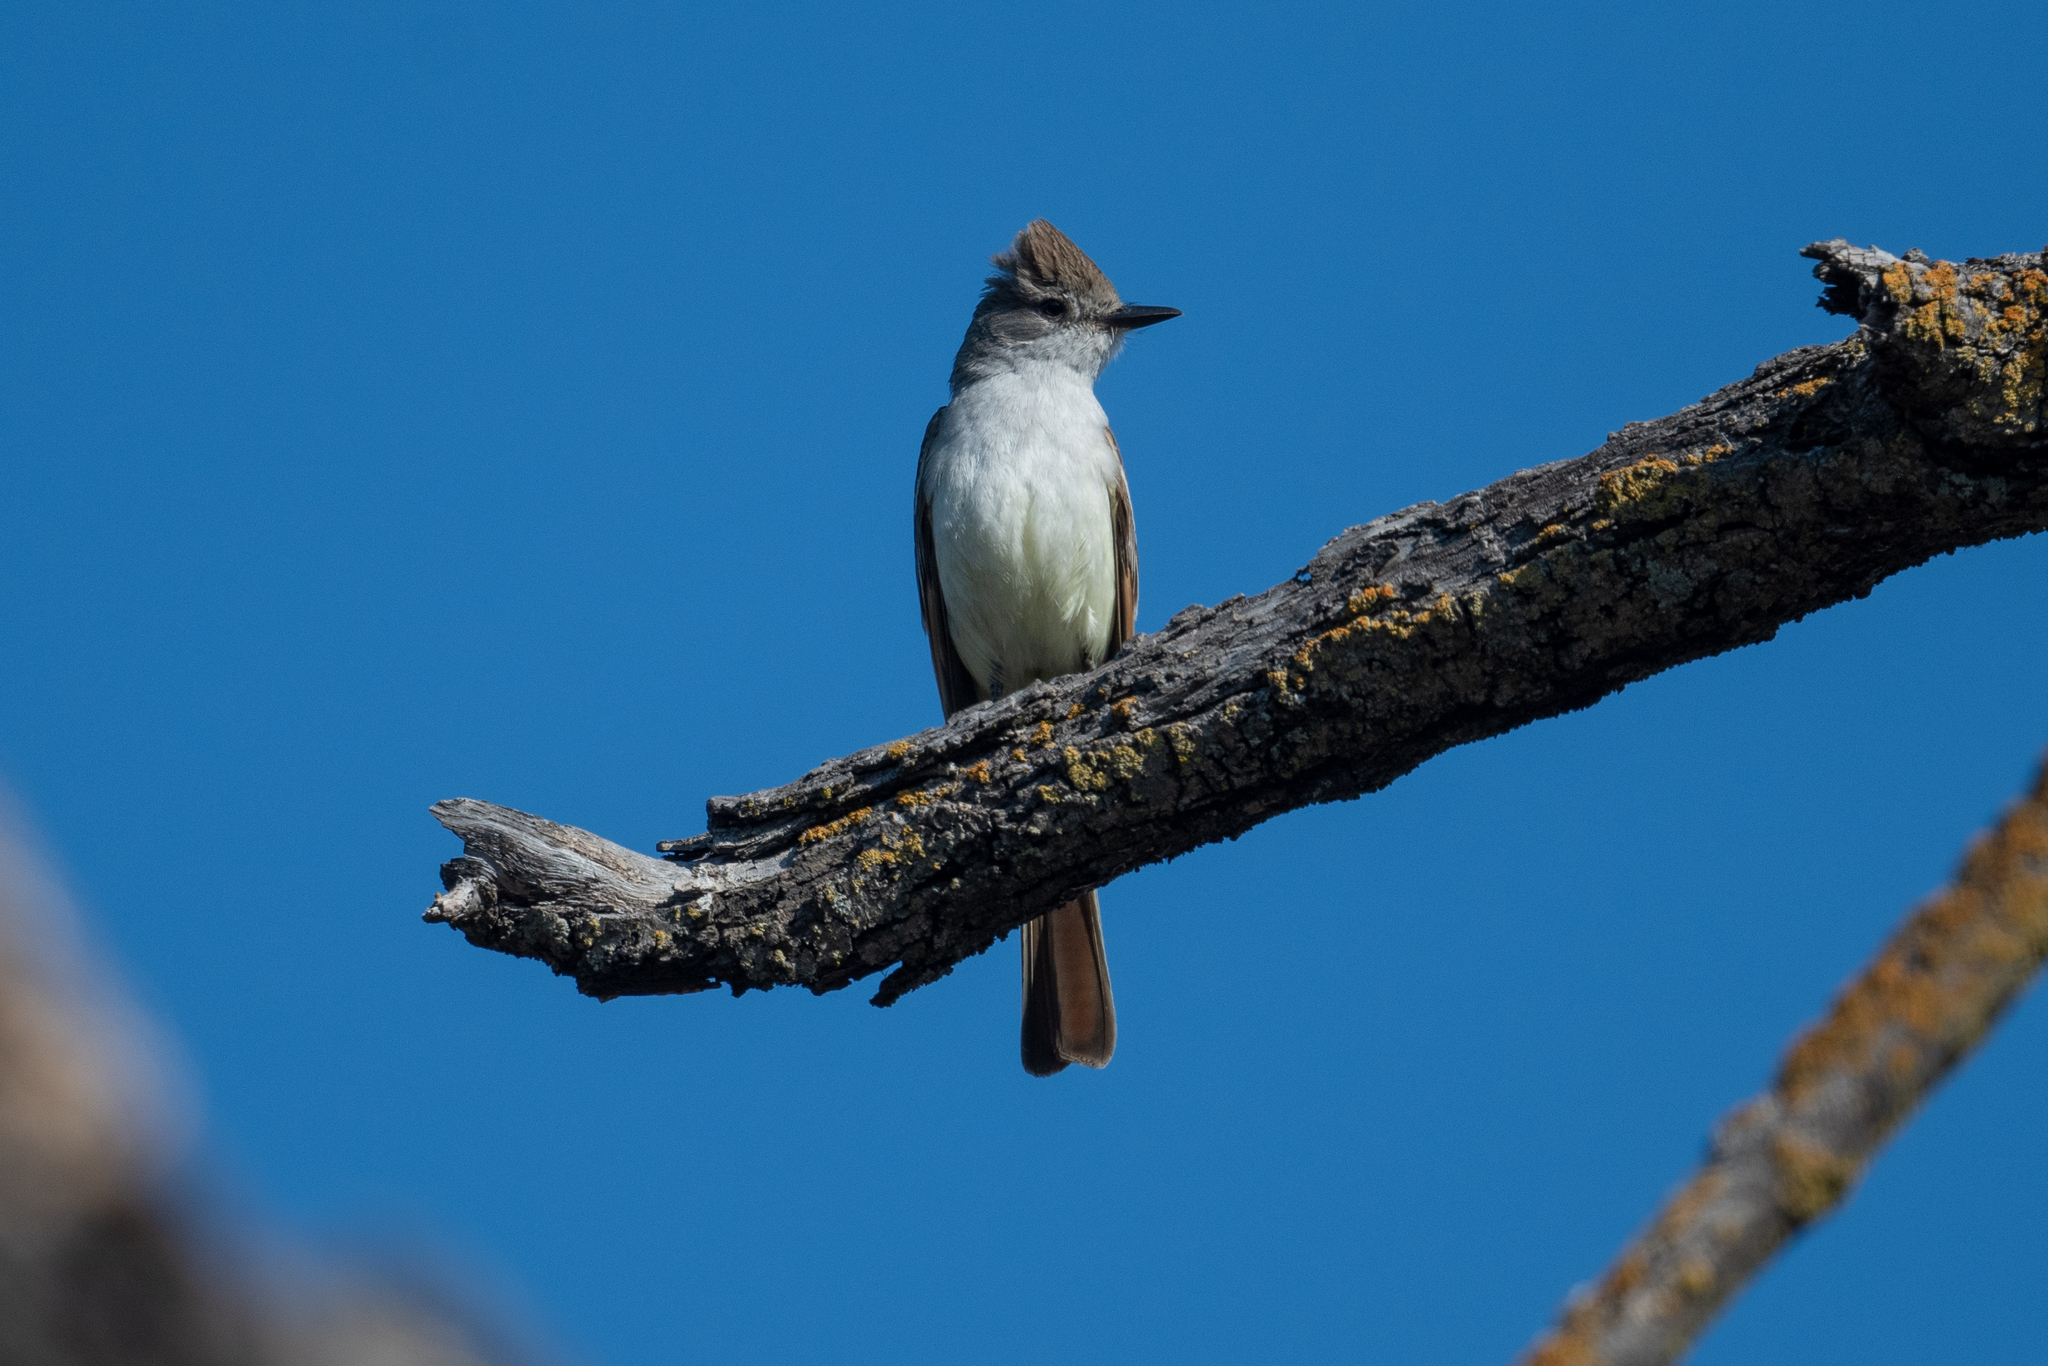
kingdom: Animalia
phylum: Chordata
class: Aves
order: Passeriformes
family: Tyrannidae
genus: Myiarchus
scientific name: Myiarchus cinerascens
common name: Ash-throated flycatcher
